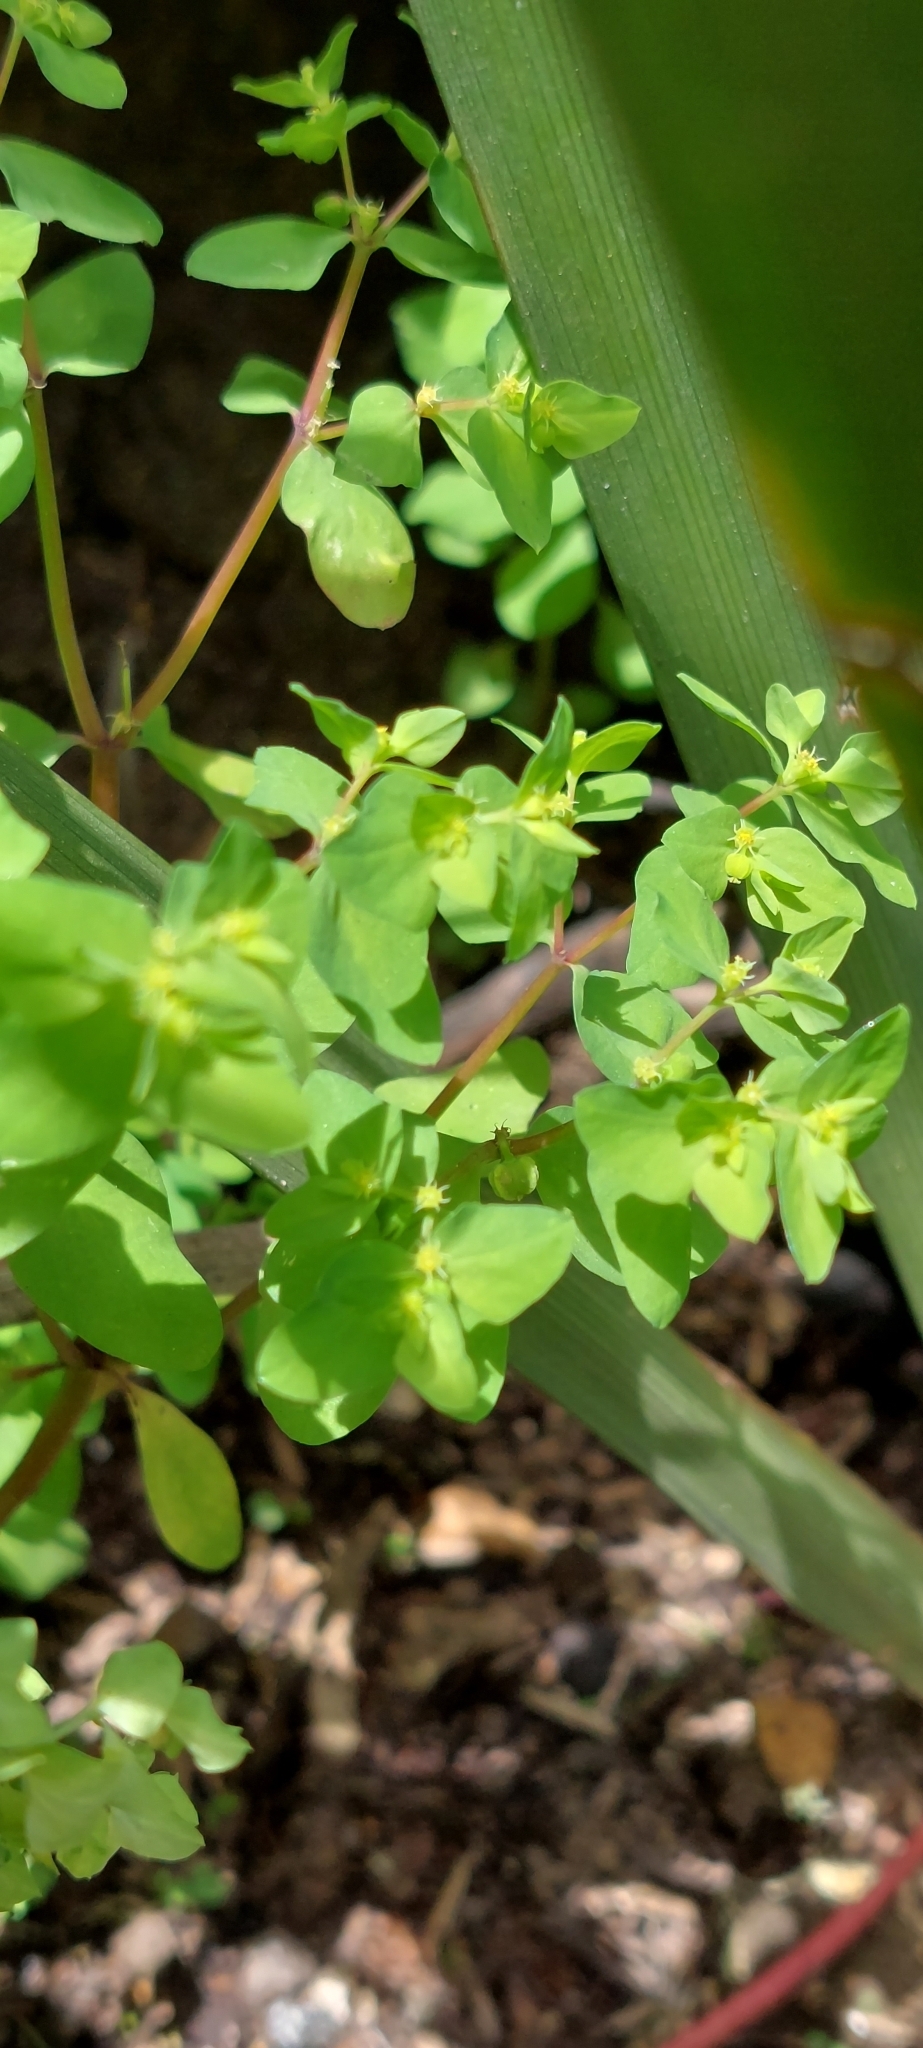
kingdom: Plantae
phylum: Tracheophyta
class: Magnoliopsida
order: Malpighiales
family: Euphorbiaceae
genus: Euphorbia
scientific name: Euphorbia peplus
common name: Petty spurge
